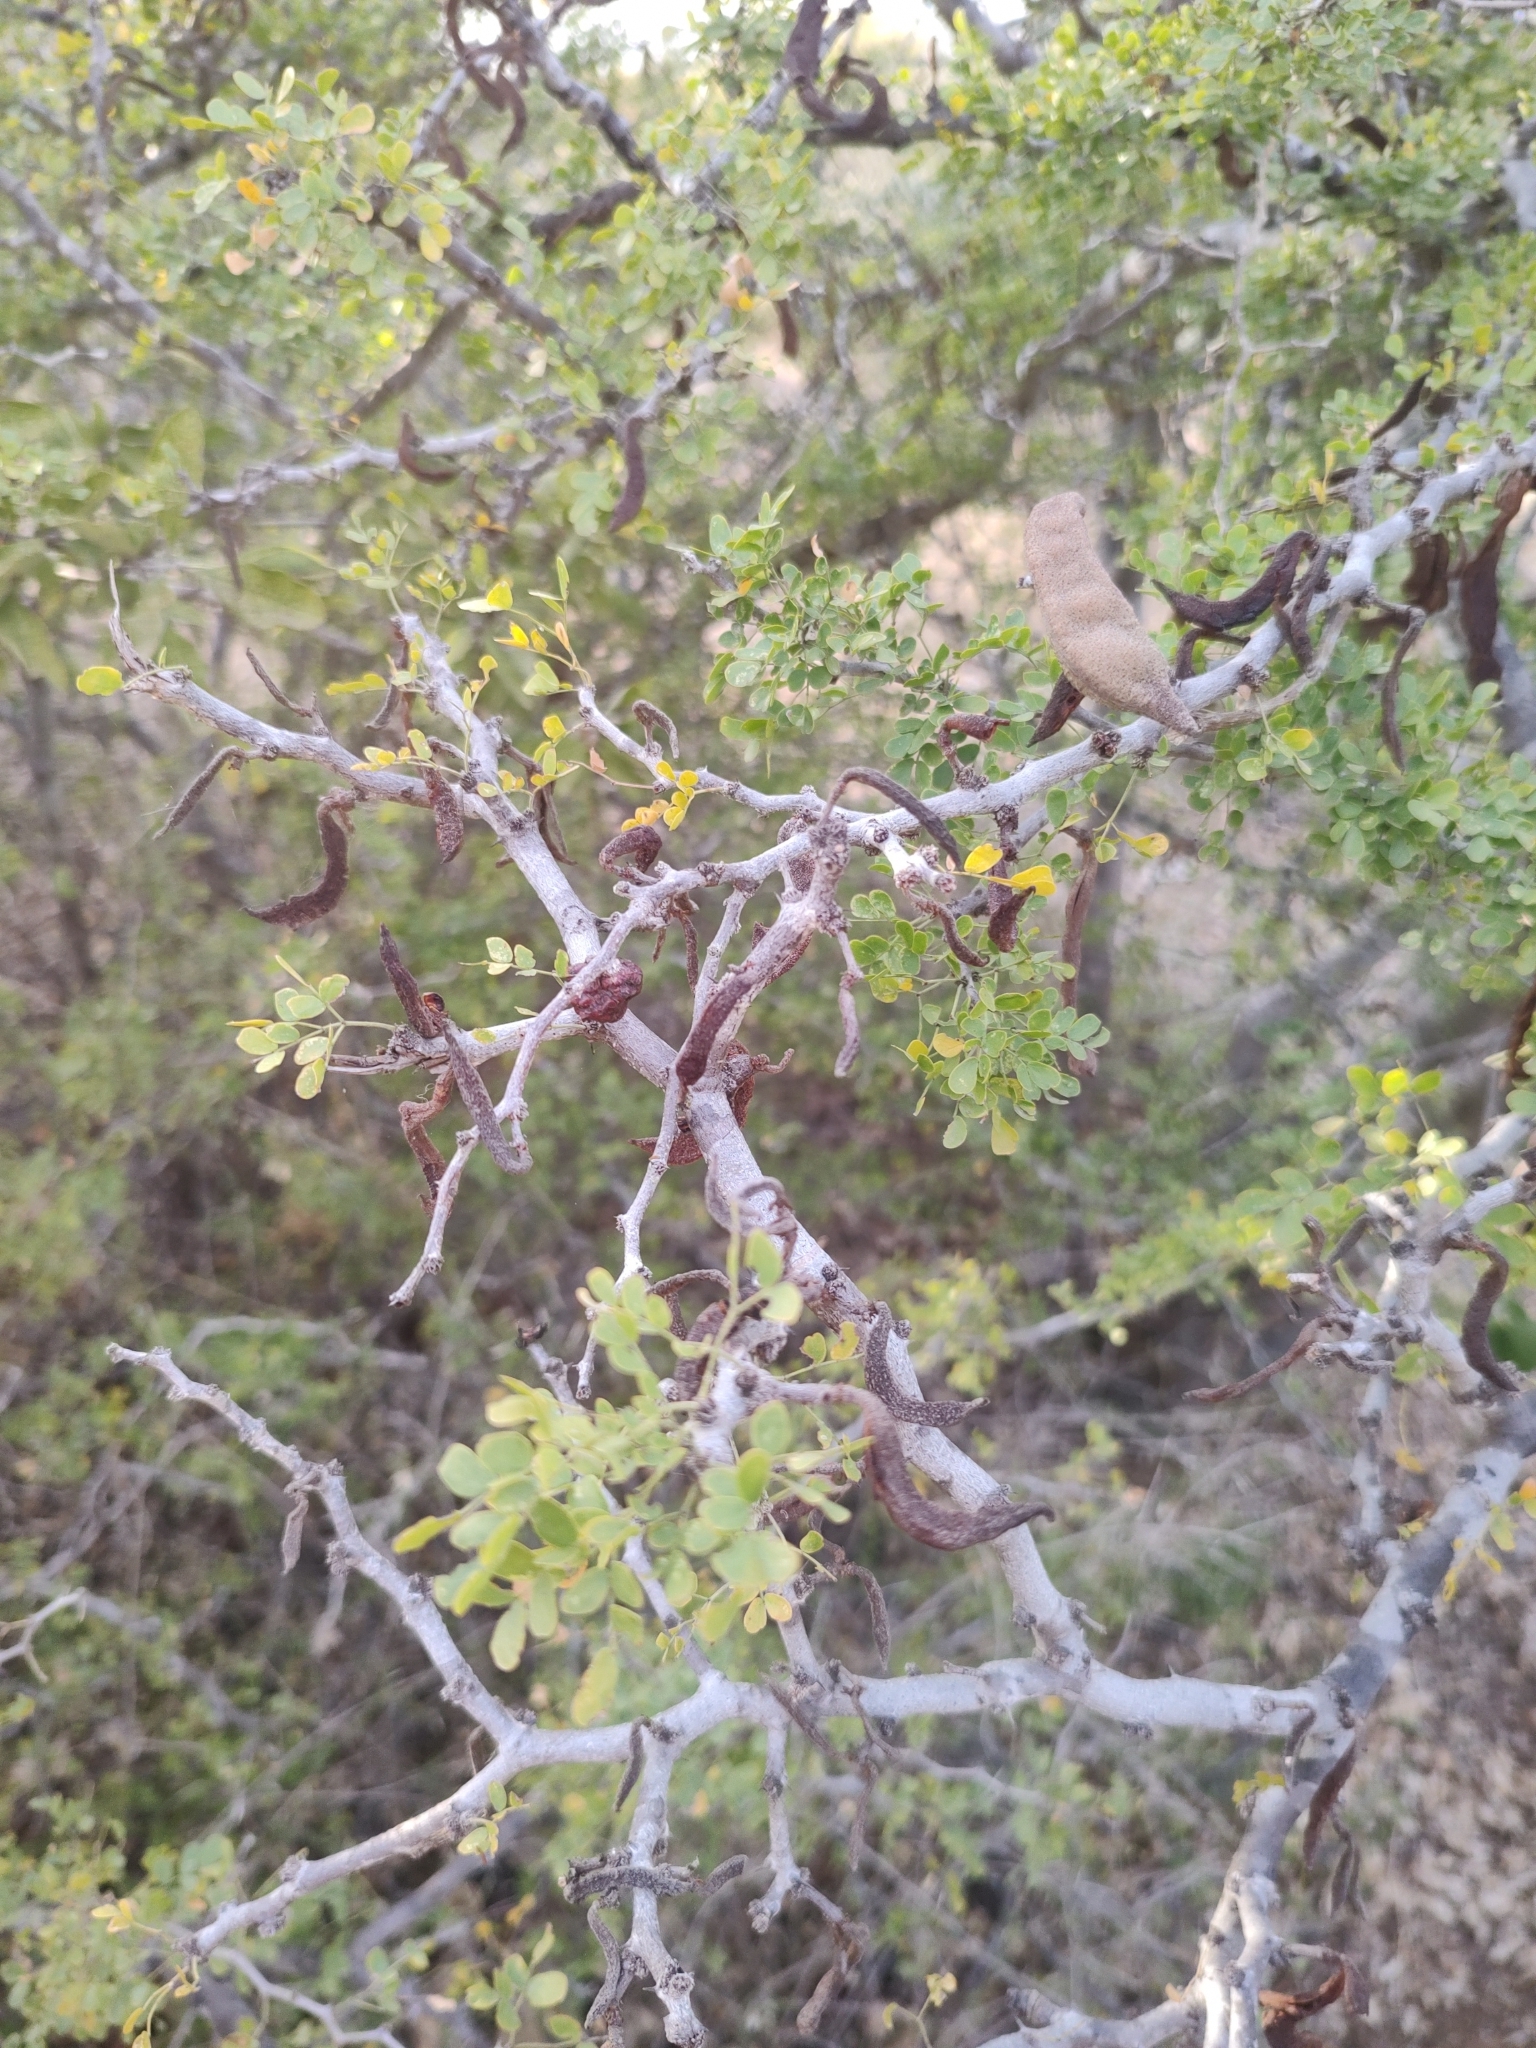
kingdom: Plantae
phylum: Tracheophyta
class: Magnoliopsida
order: Fabales
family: Fabaceae
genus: Ebenopsis
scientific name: Ebenopsis confinis
